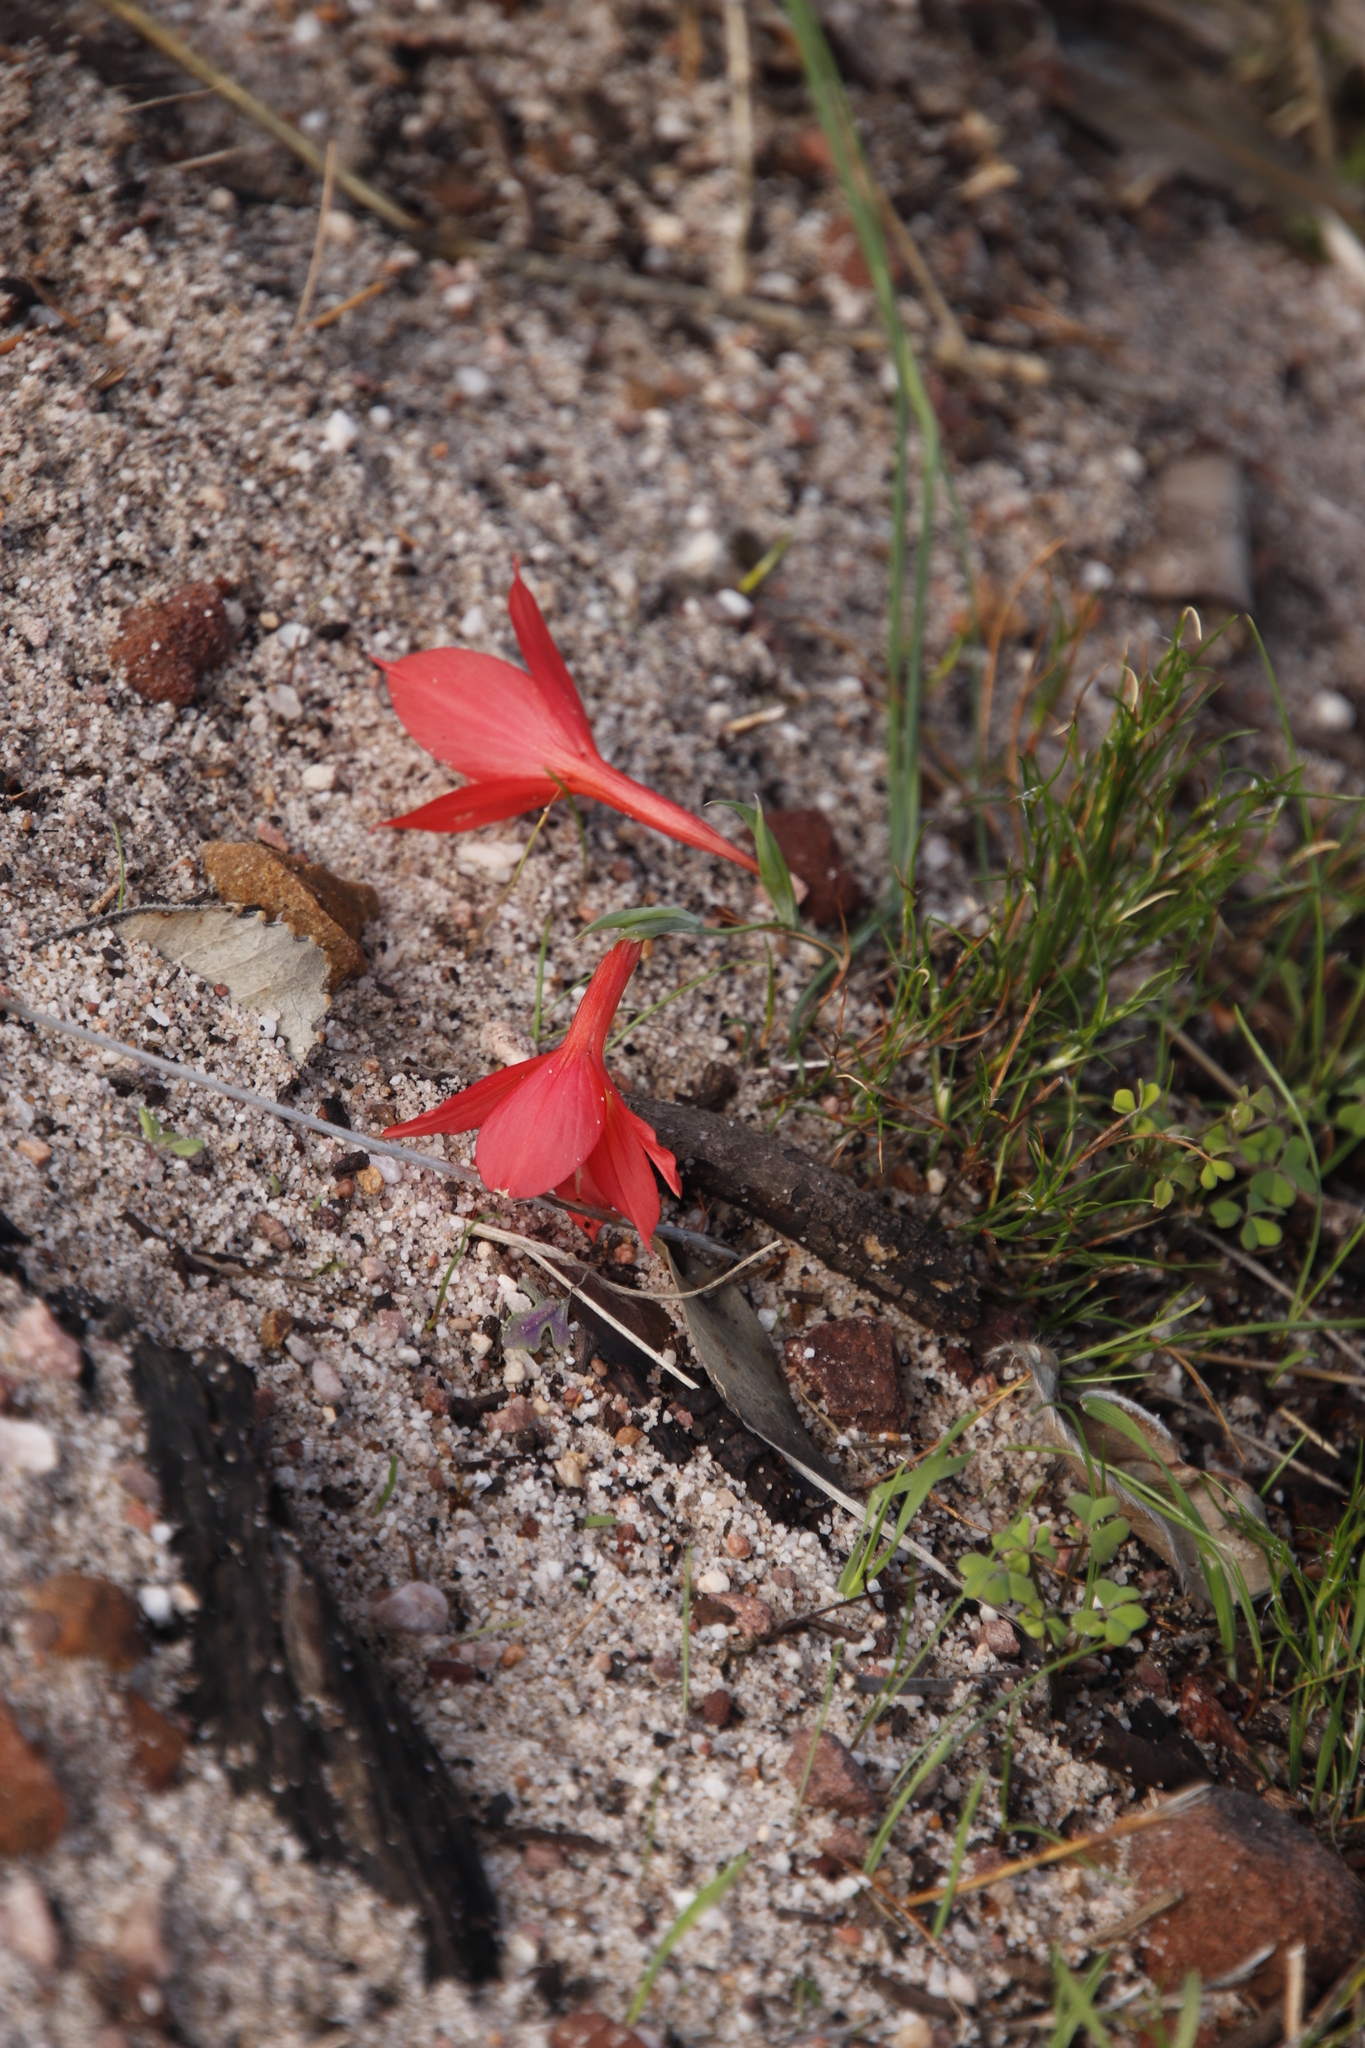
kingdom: Plantae
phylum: Tracheophyta
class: Liliopsida
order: Asparagales
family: Iridaceae
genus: Gladiolus
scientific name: Gladiolus priorii
